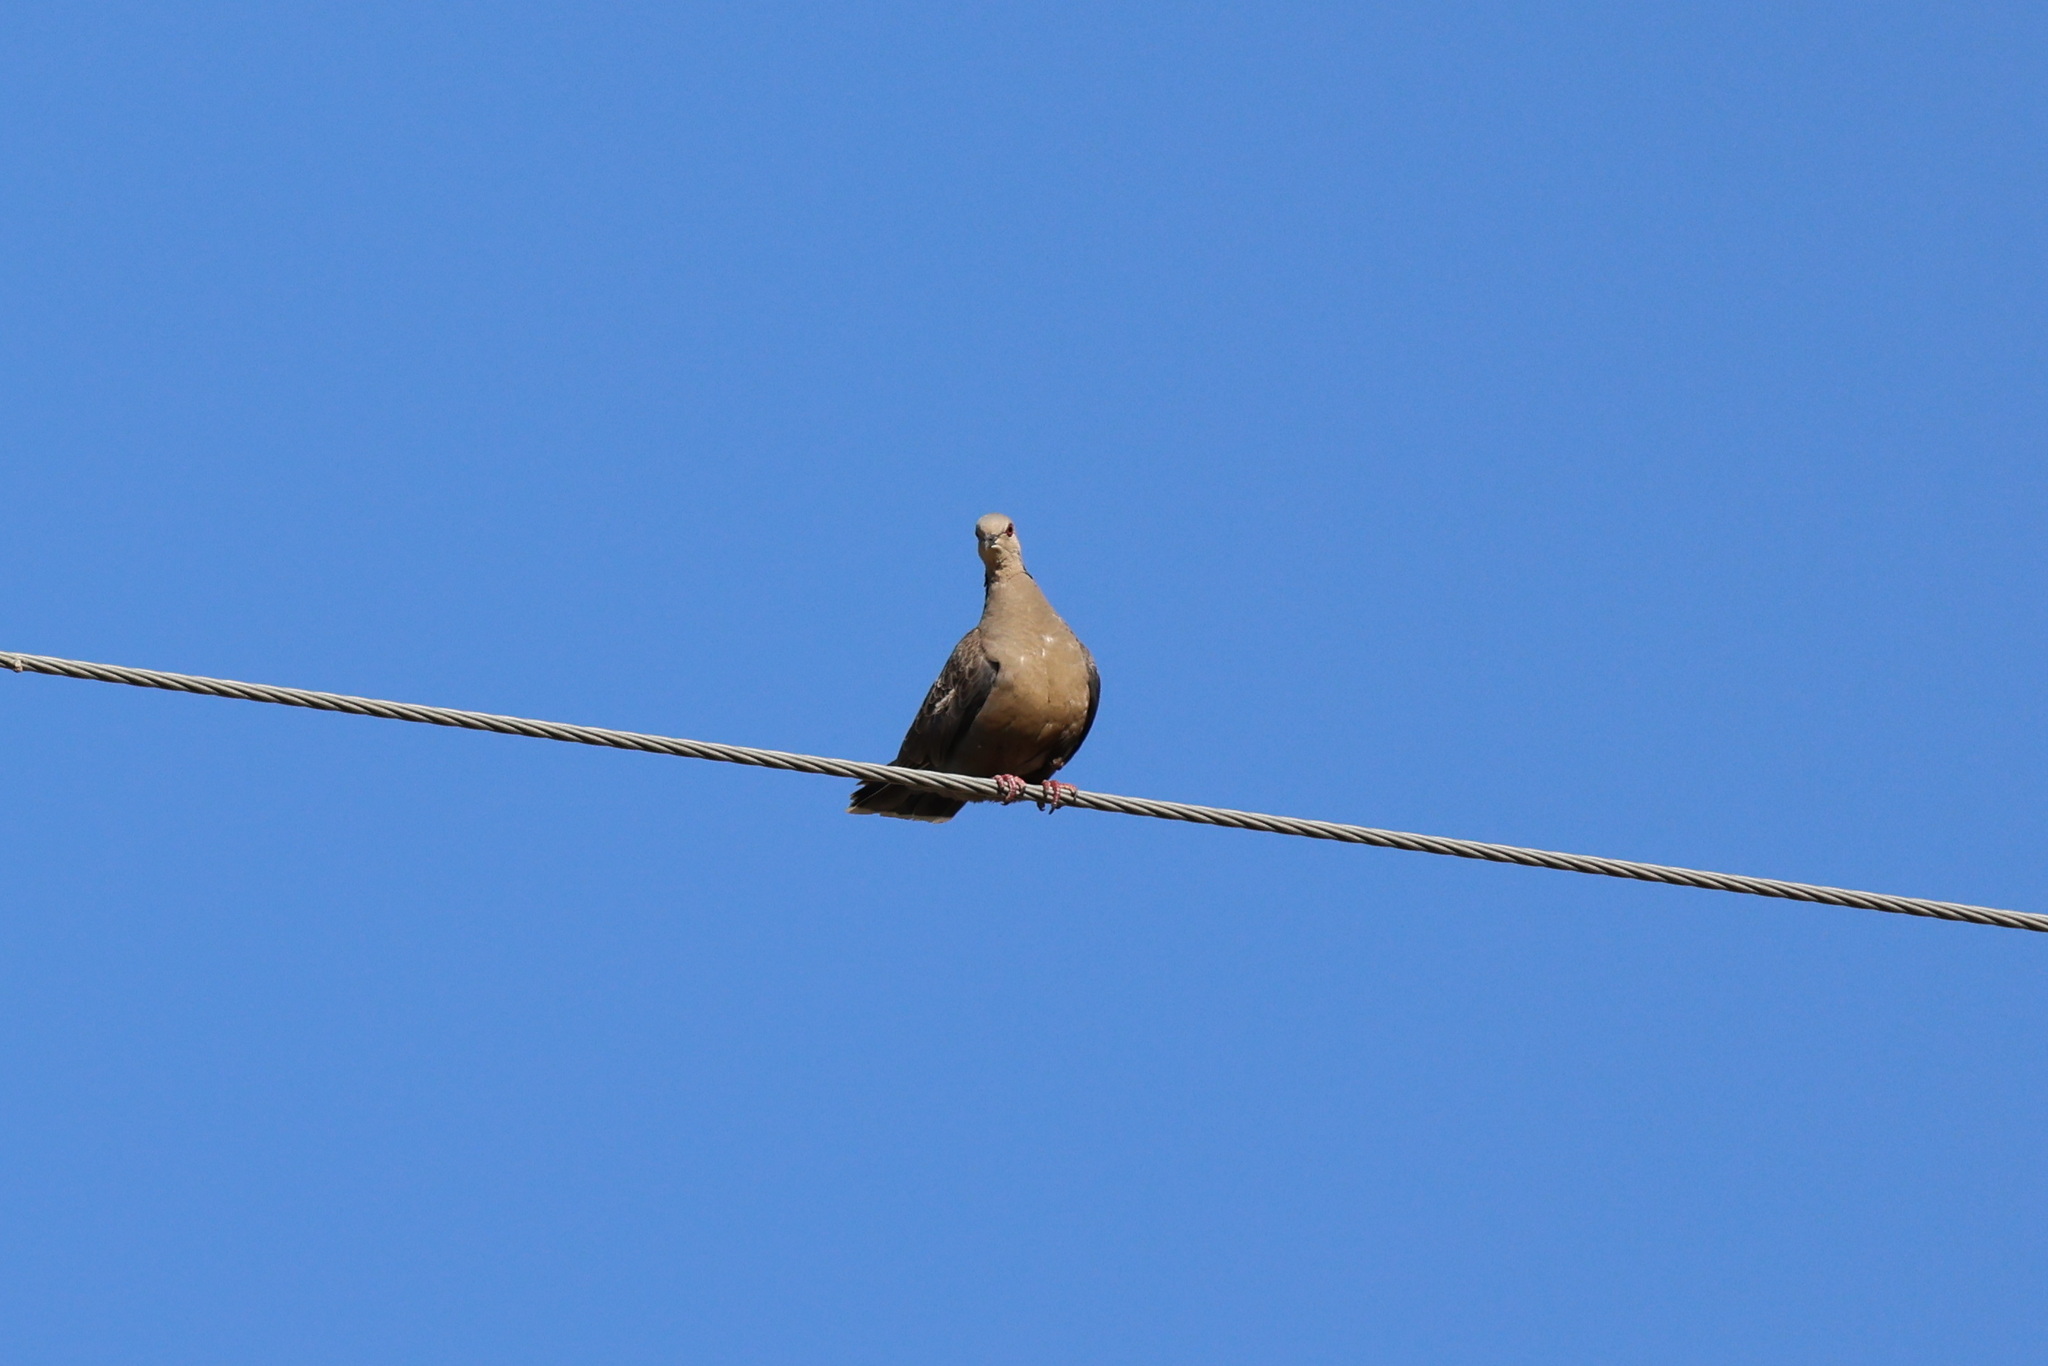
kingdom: Animalia
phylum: Chordata
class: Aves
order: Columbiformes
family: Columbidae
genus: Streptopelia
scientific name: Streptopelia lugens
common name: Dusky turtle dove
